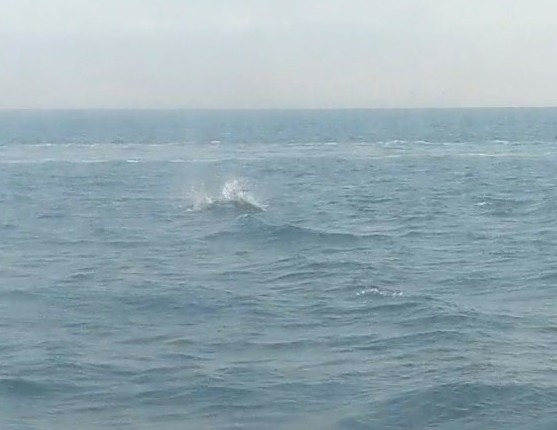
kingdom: Animalia
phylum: Chordata
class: Mammalia
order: Cetacea
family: Phocoenidae
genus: Phocoenoides
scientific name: Phocoenoides dalli
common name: Dall's porpoise
